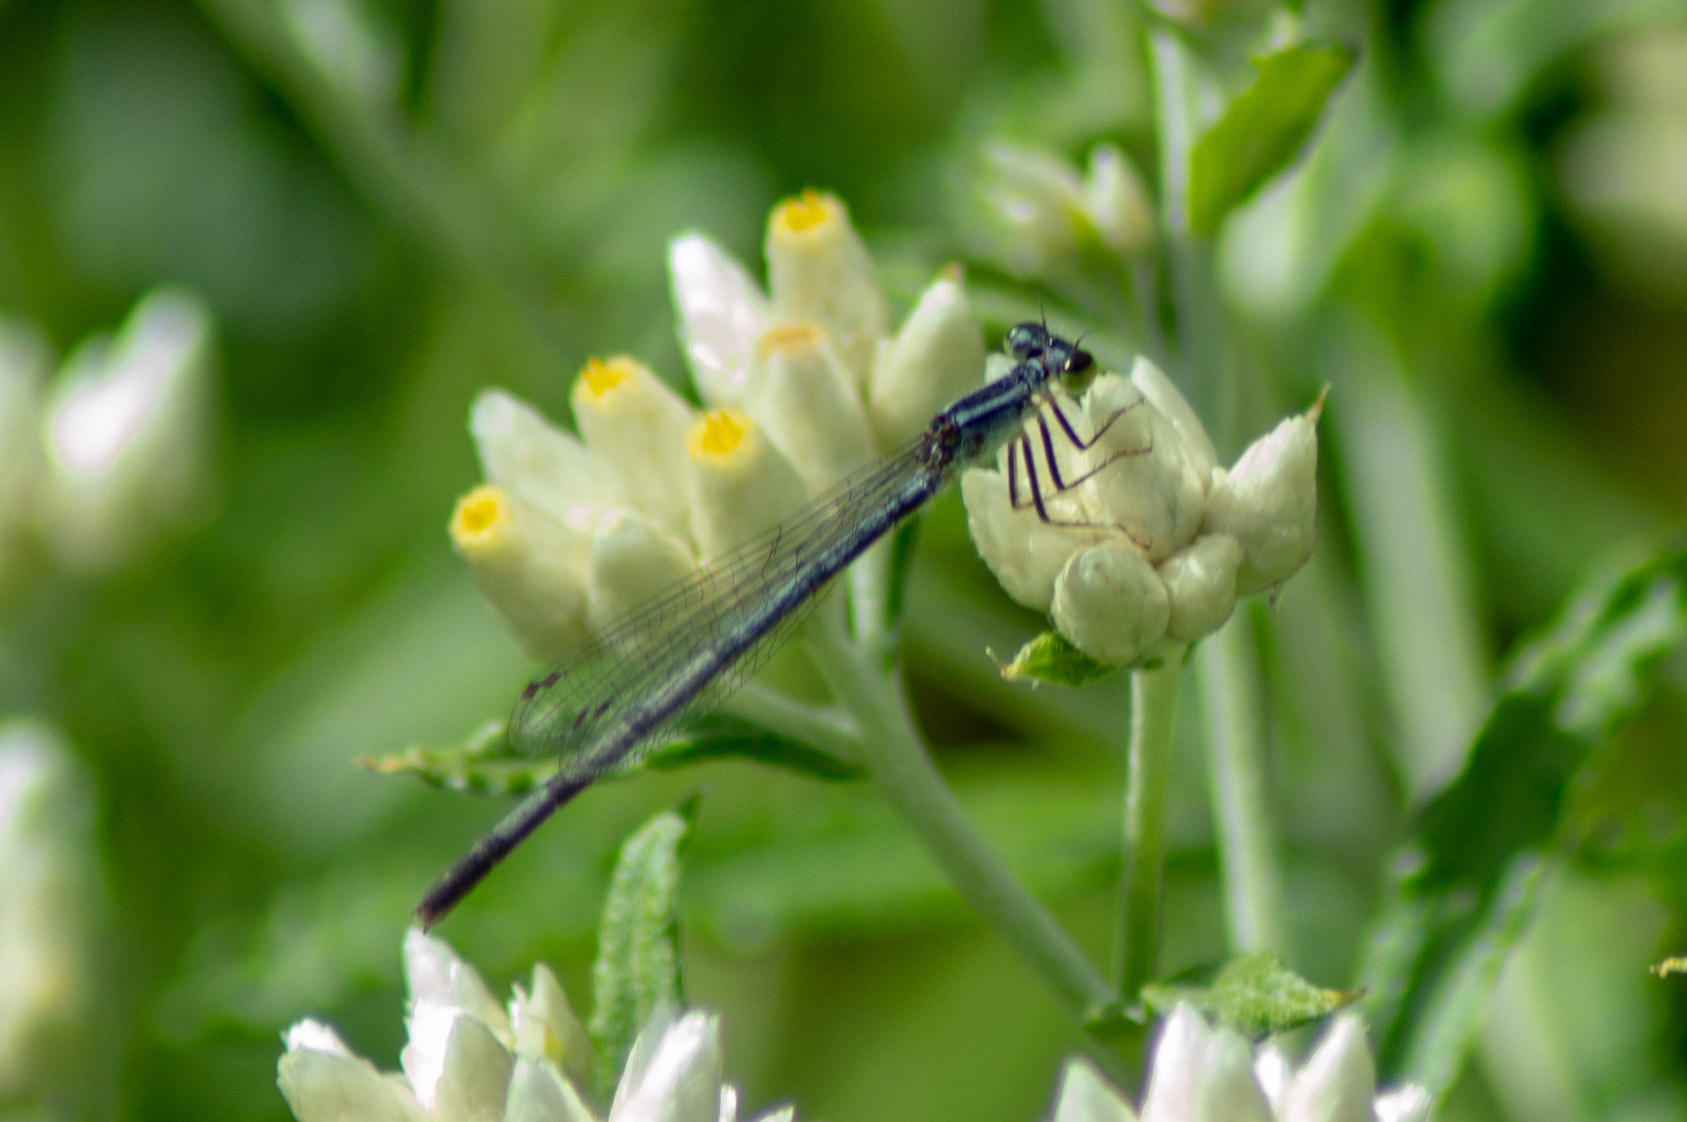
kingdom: Animalia
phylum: Arthropoda
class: Insecta
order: Odonata
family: Coenagrionidae
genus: Ischnura
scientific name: Ischnura verticalis
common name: Eastern forktail
